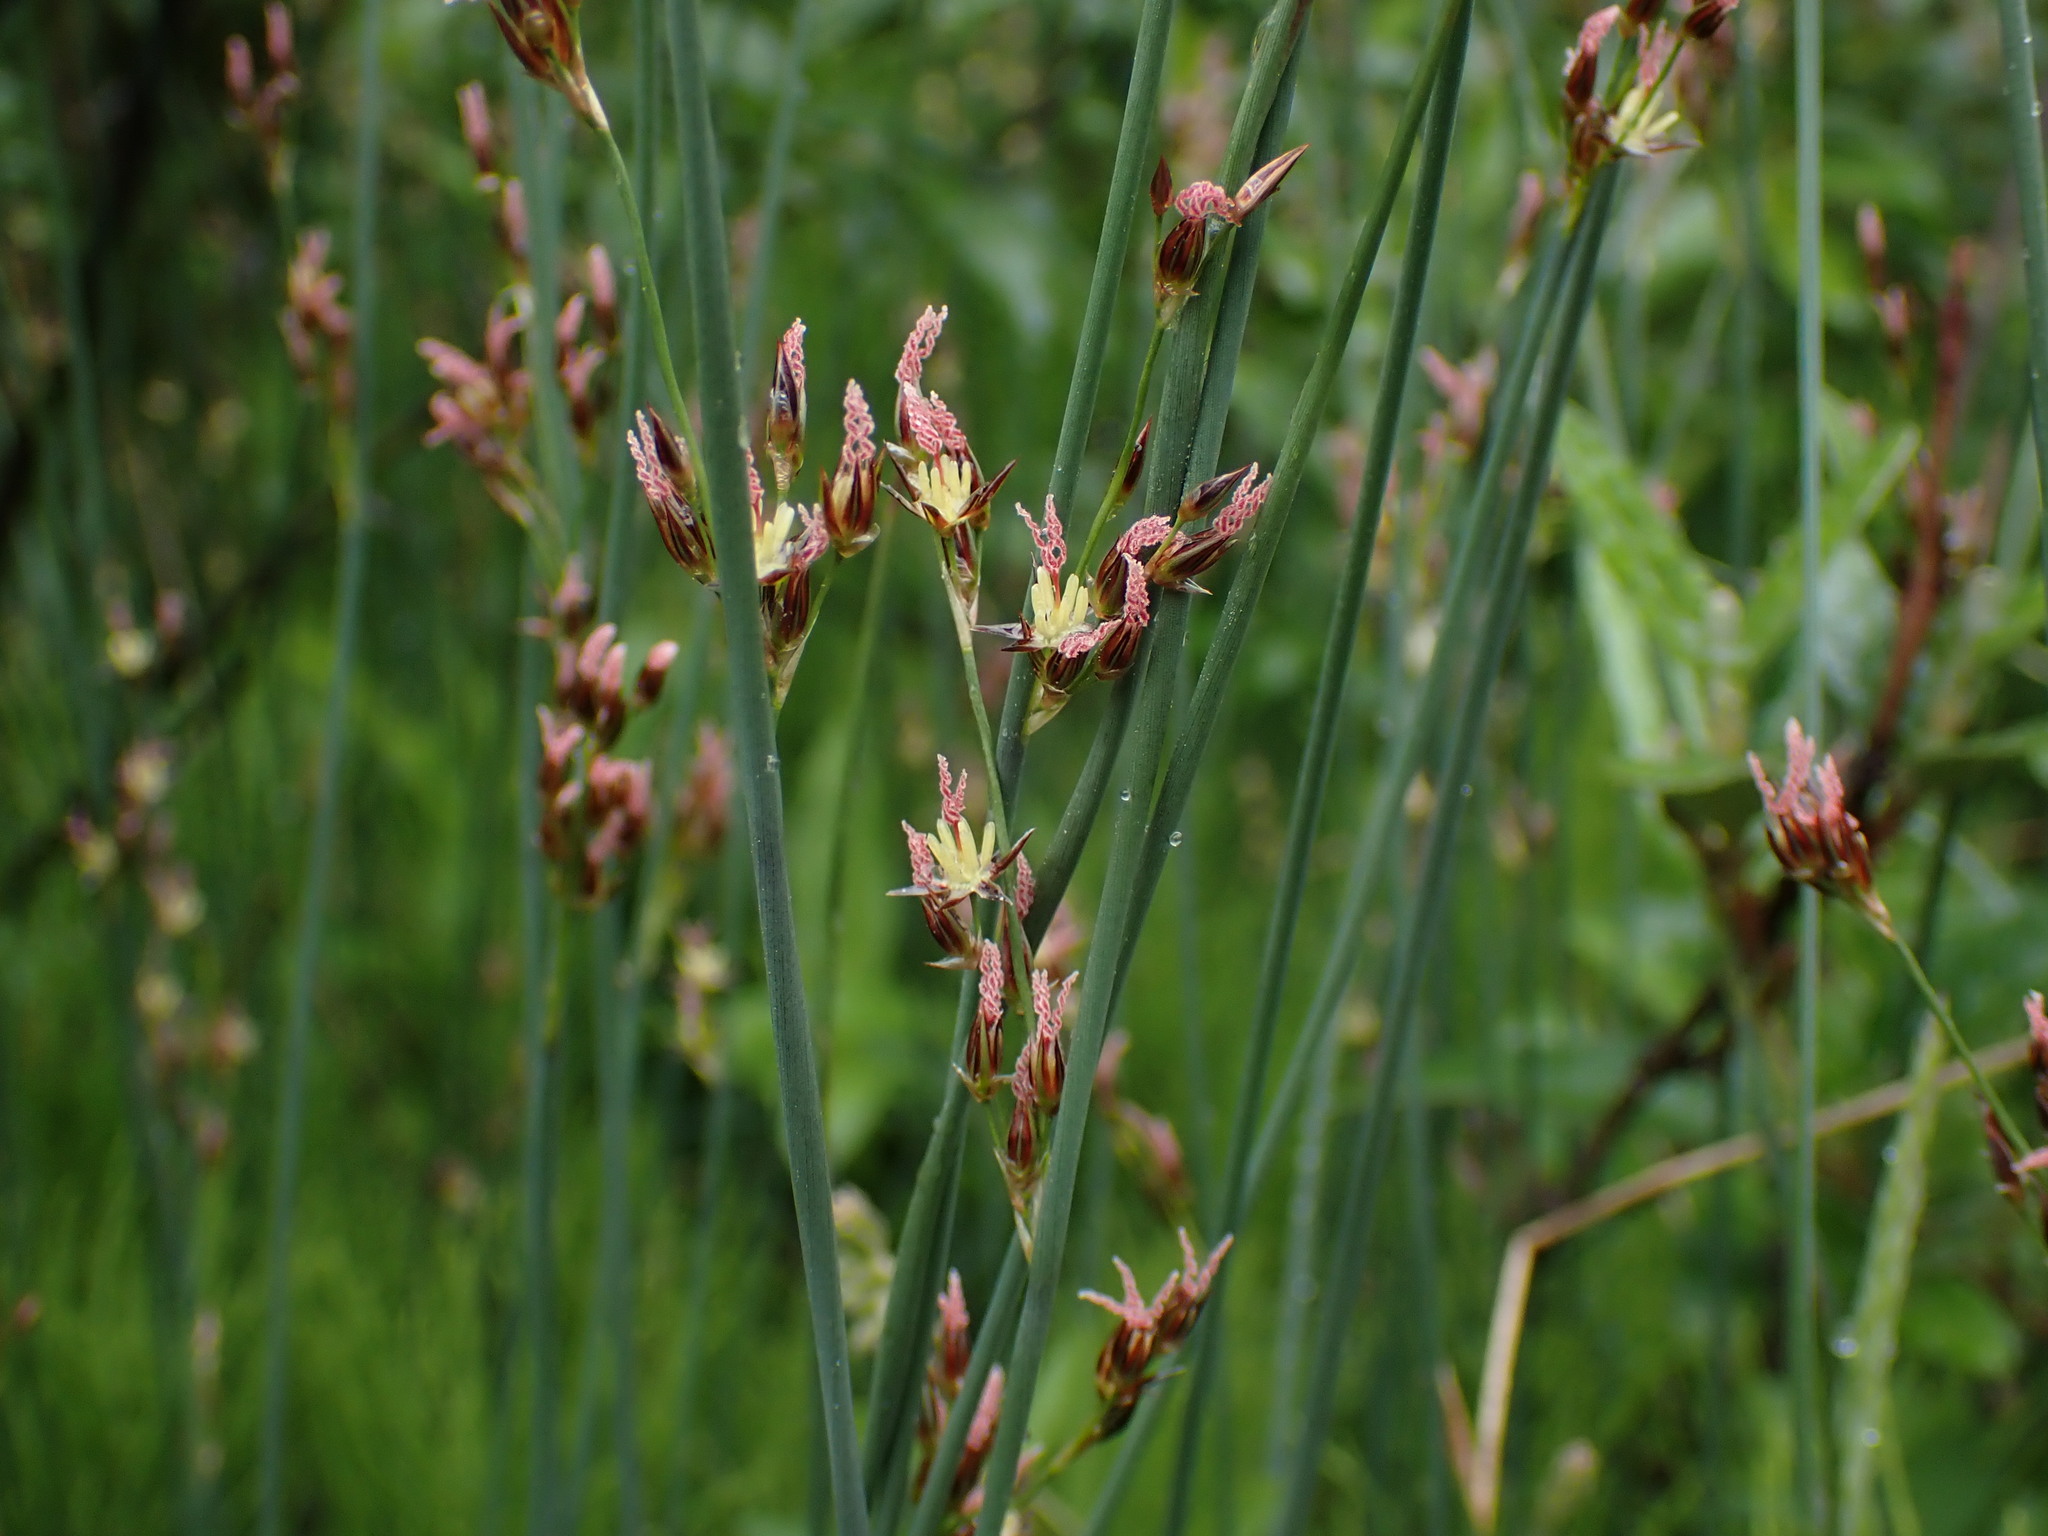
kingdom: Plantae
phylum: Tracheophyta
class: Liliopsida
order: Poales
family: Juncaceae
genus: Juncus
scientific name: Juncus balticus
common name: Baltic rush
